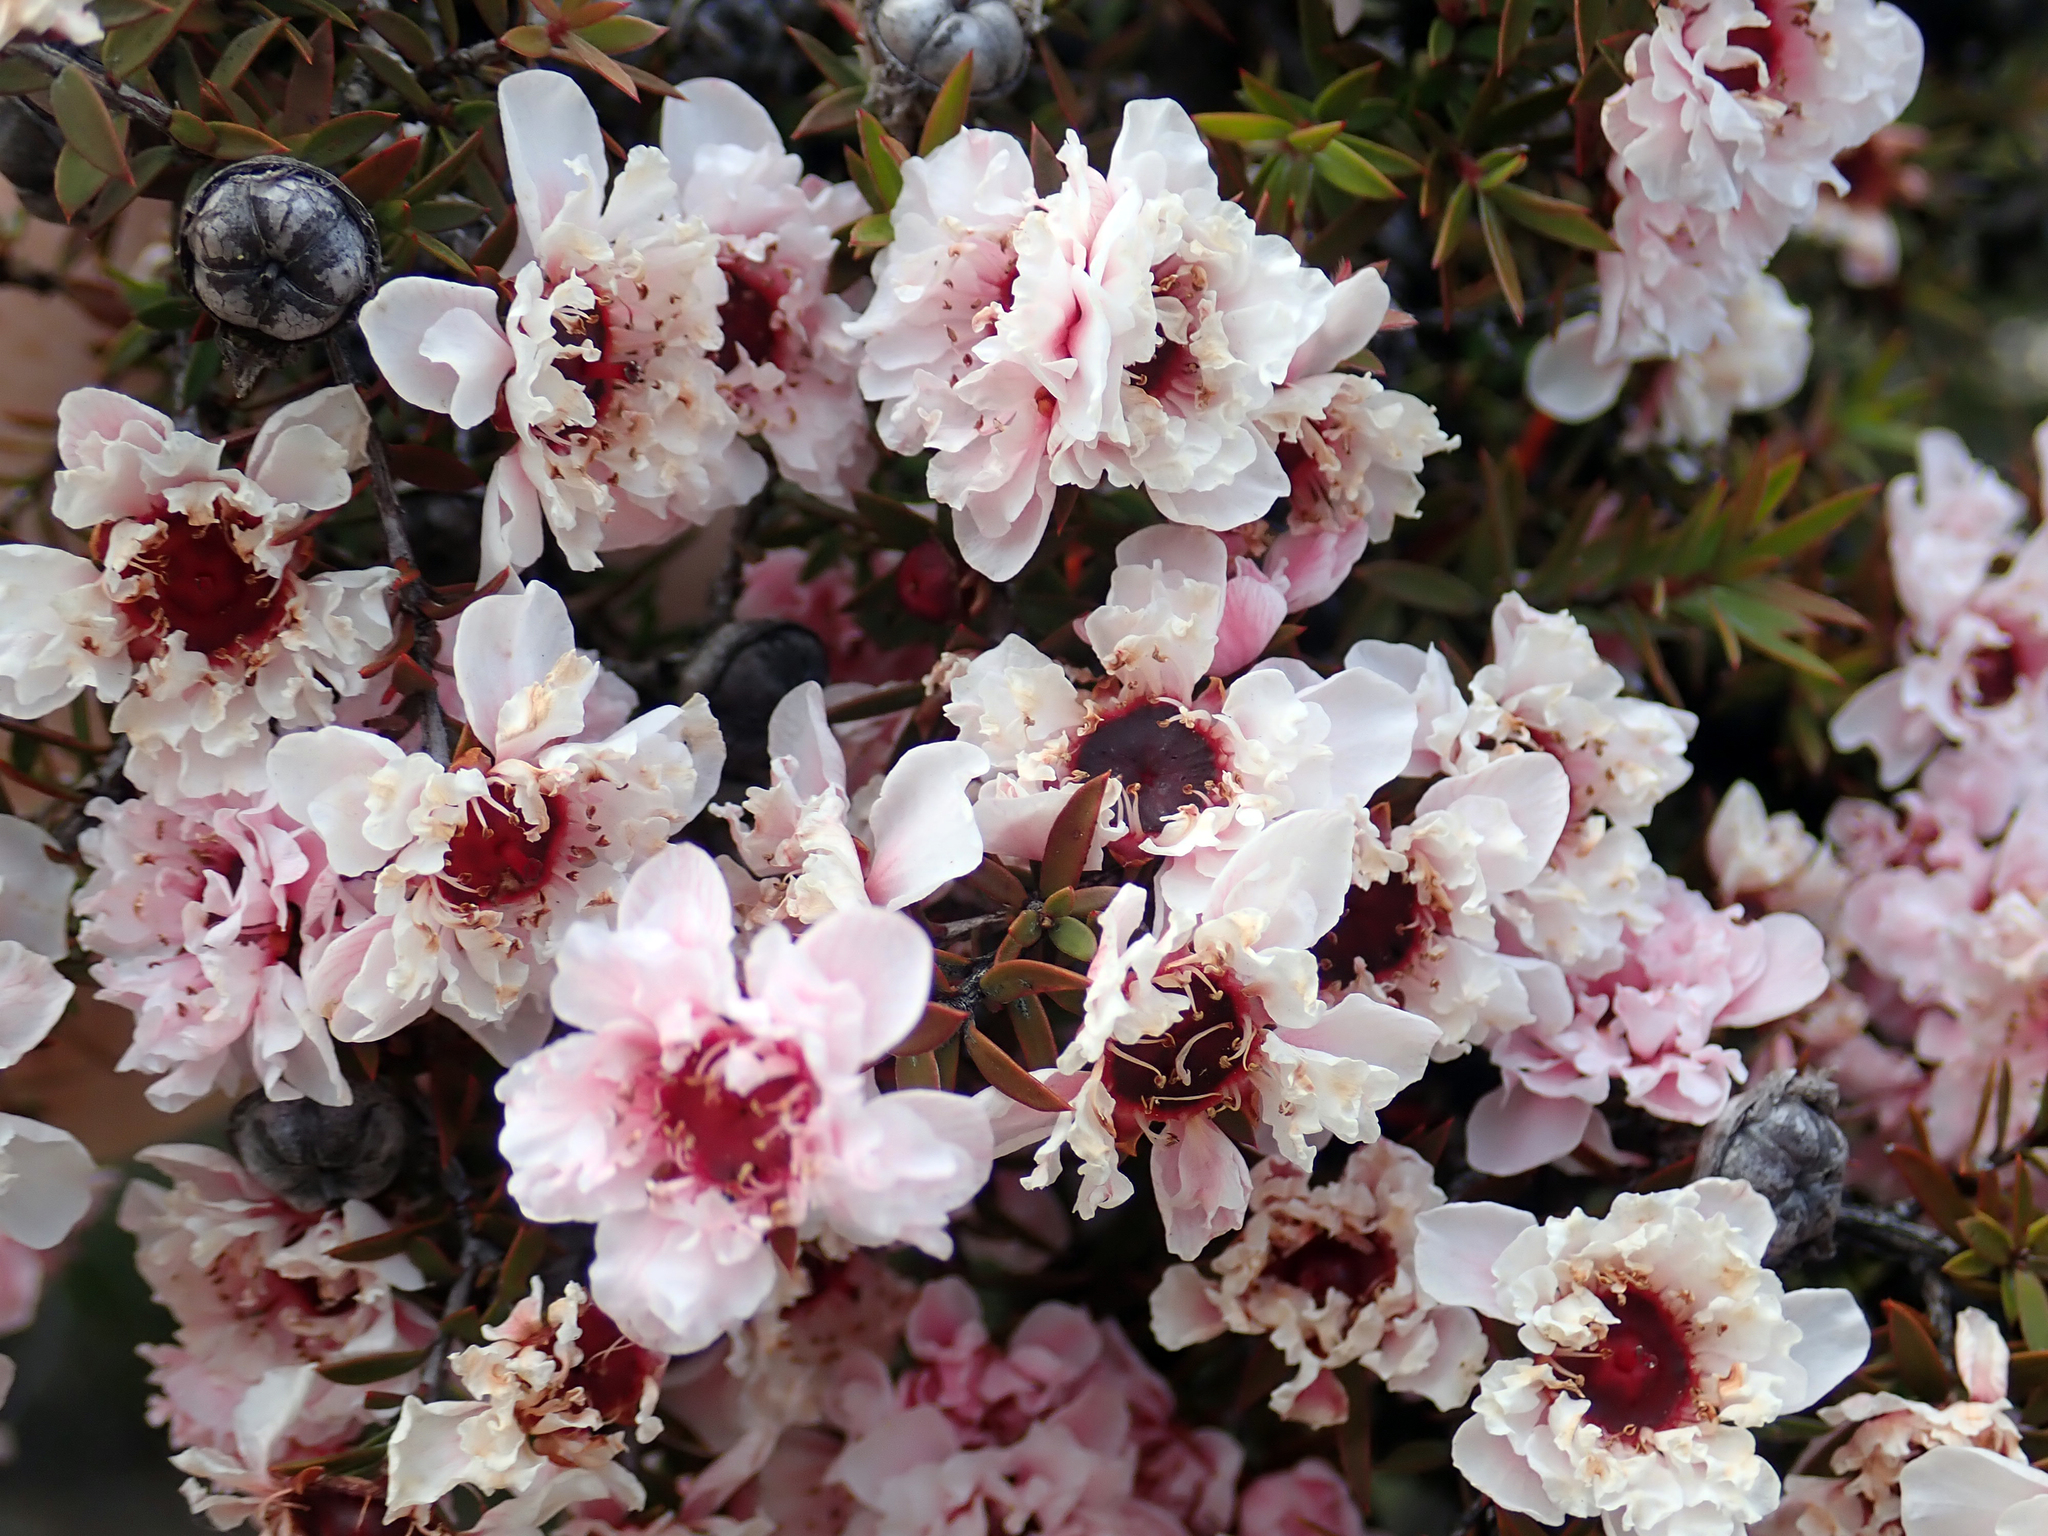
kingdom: Plantae
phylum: Tracheophyta
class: Magnoliopsida
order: Myrtales
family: Myrtaceae
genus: Leptospermum
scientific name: Leptospermum scoparium
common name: Broom tea-tree
